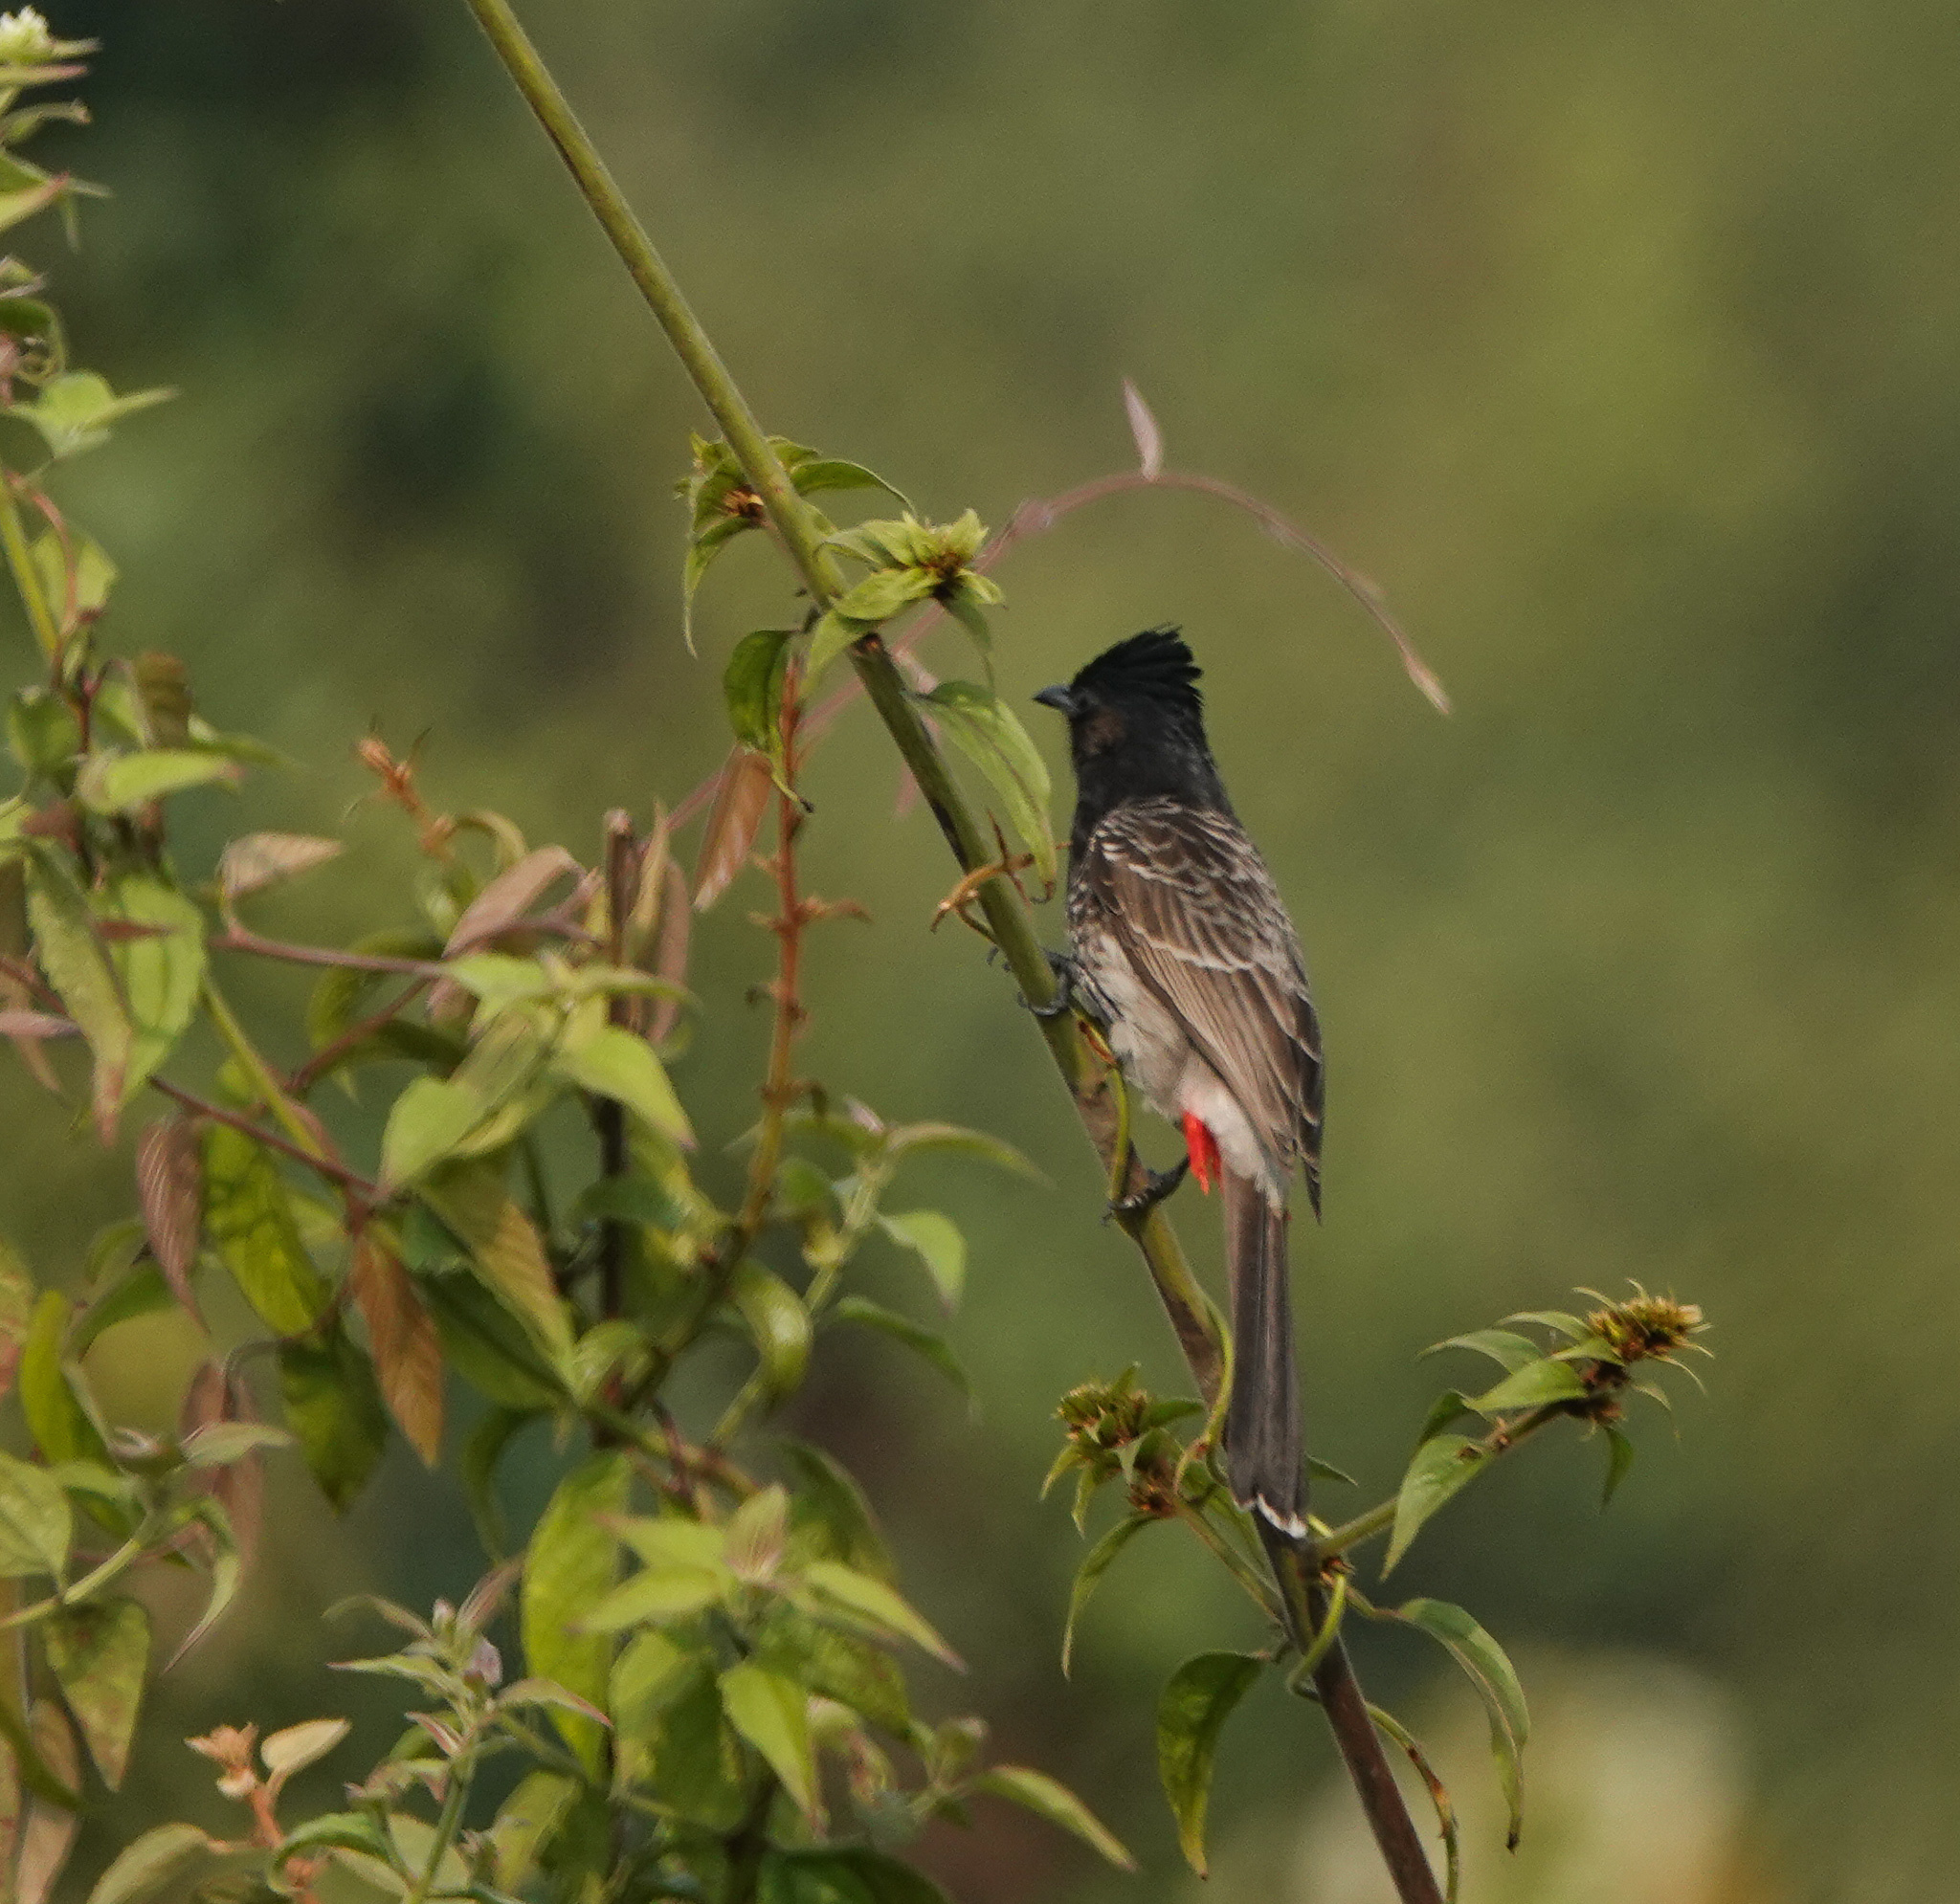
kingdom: Animalia
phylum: Chordata
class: Aves
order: Passeriformes
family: Pycnonotidae
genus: Pycnonotus
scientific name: Pycnonotus cafer
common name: Red-vented bulbul
